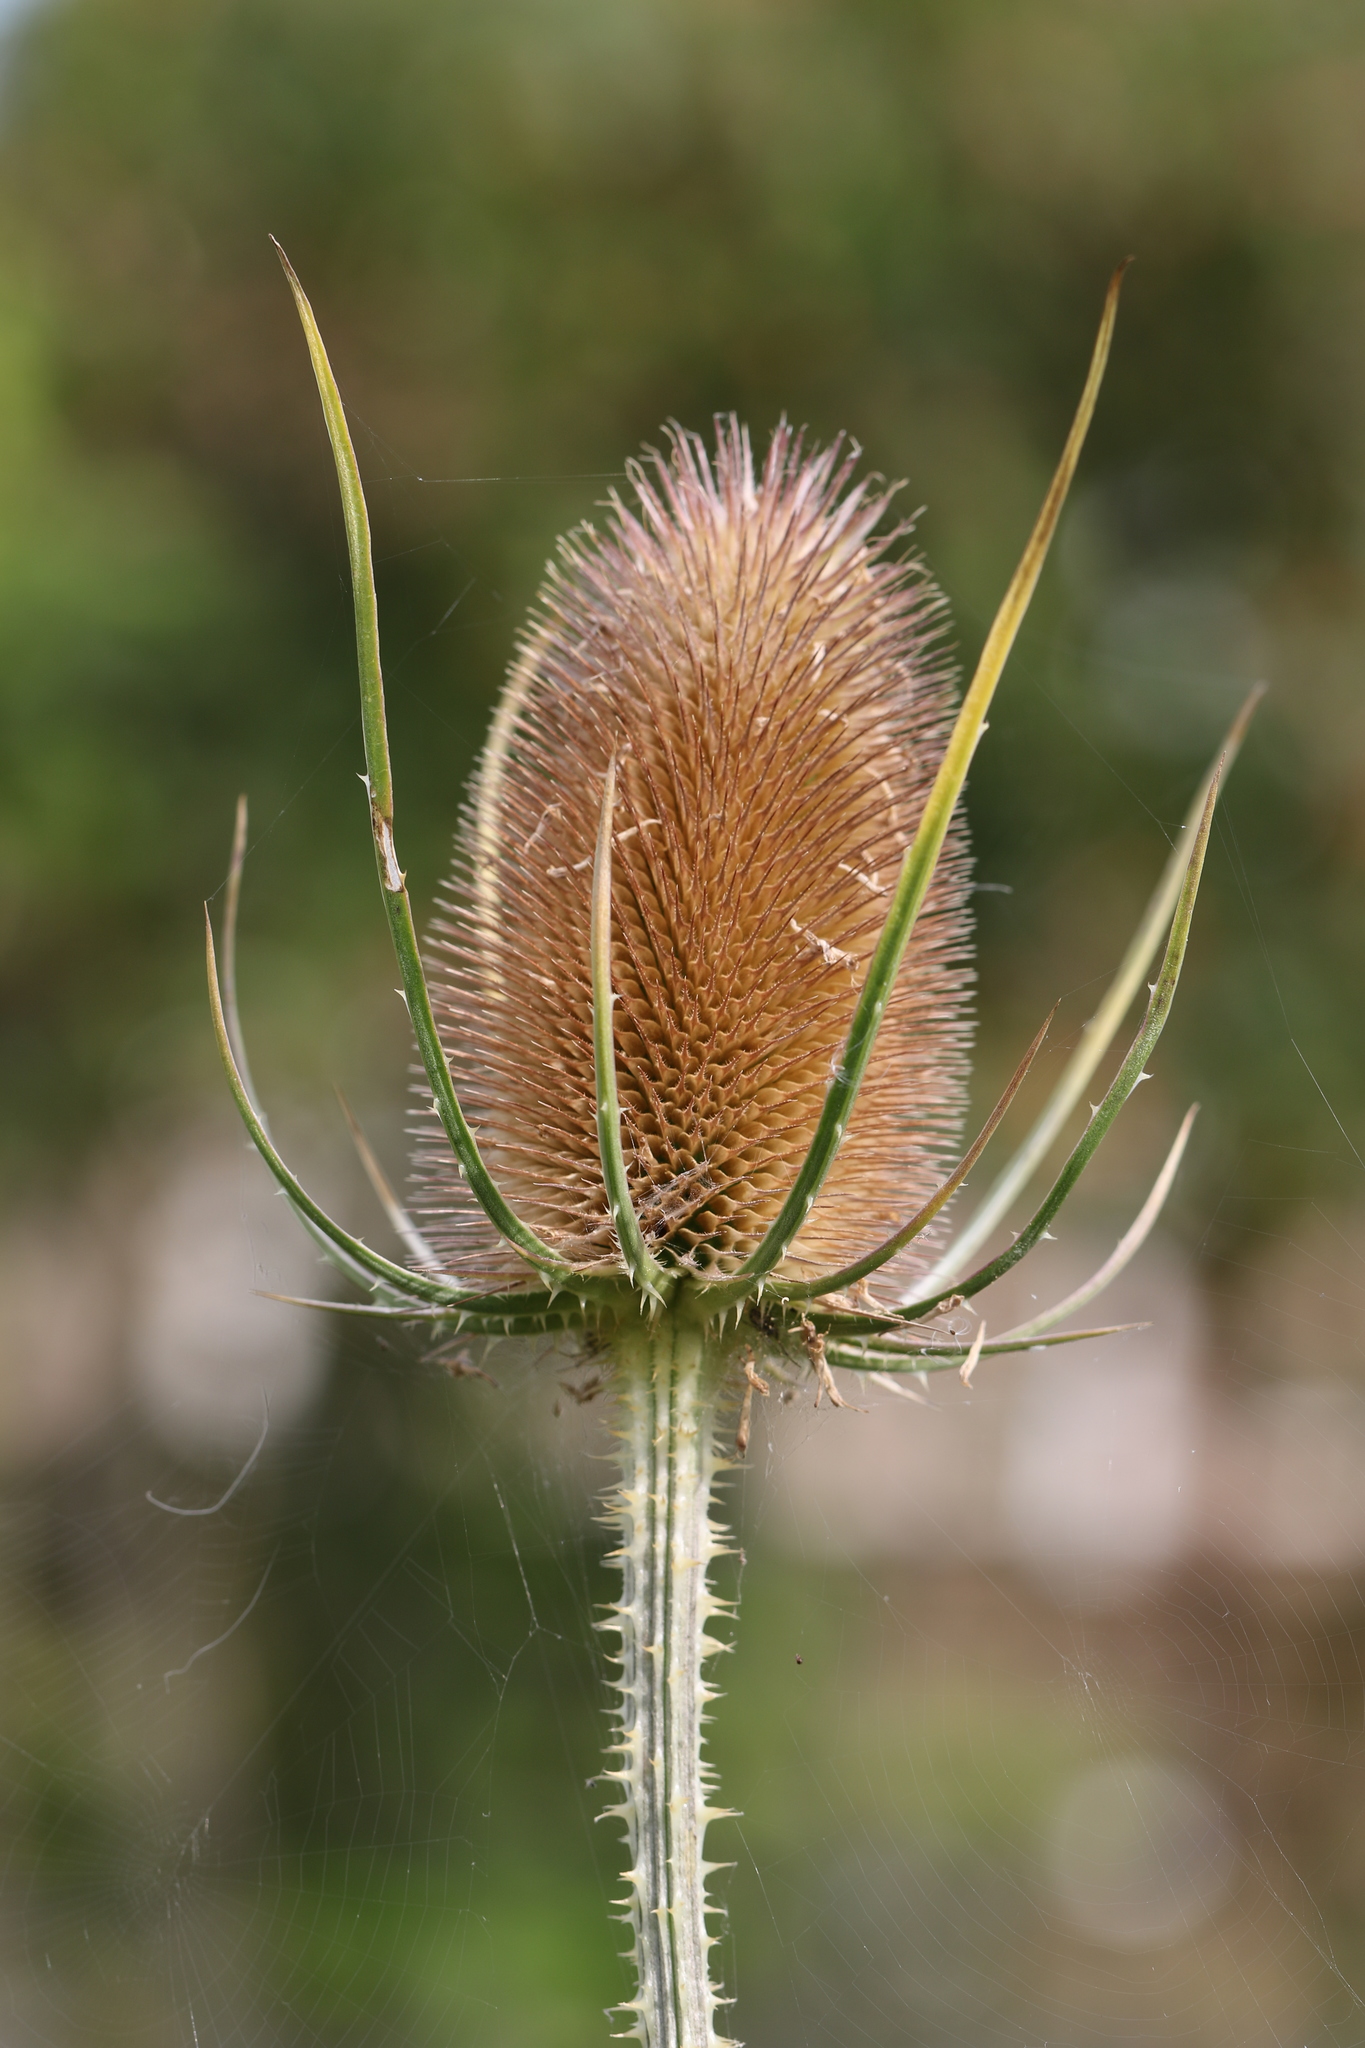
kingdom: Plantae
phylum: Tracheophyta
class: Magnoliopsida
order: Dipsacales
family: Caprifoliaceae
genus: Dipsacus
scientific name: Dipsacus fullonum
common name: Teasel
